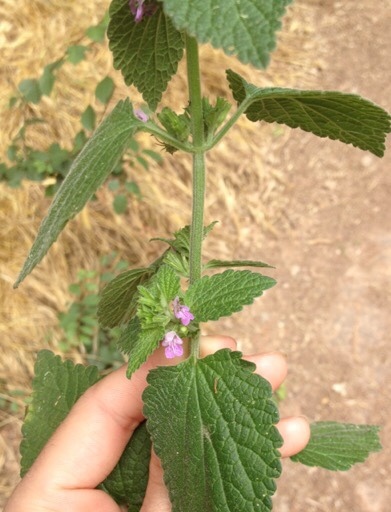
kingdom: Plantae
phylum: Tracheophyta
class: Magnoliopsida
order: Lamiales
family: Lamiaceae
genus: Ballota
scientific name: Ballota nigra
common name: Black horehound
